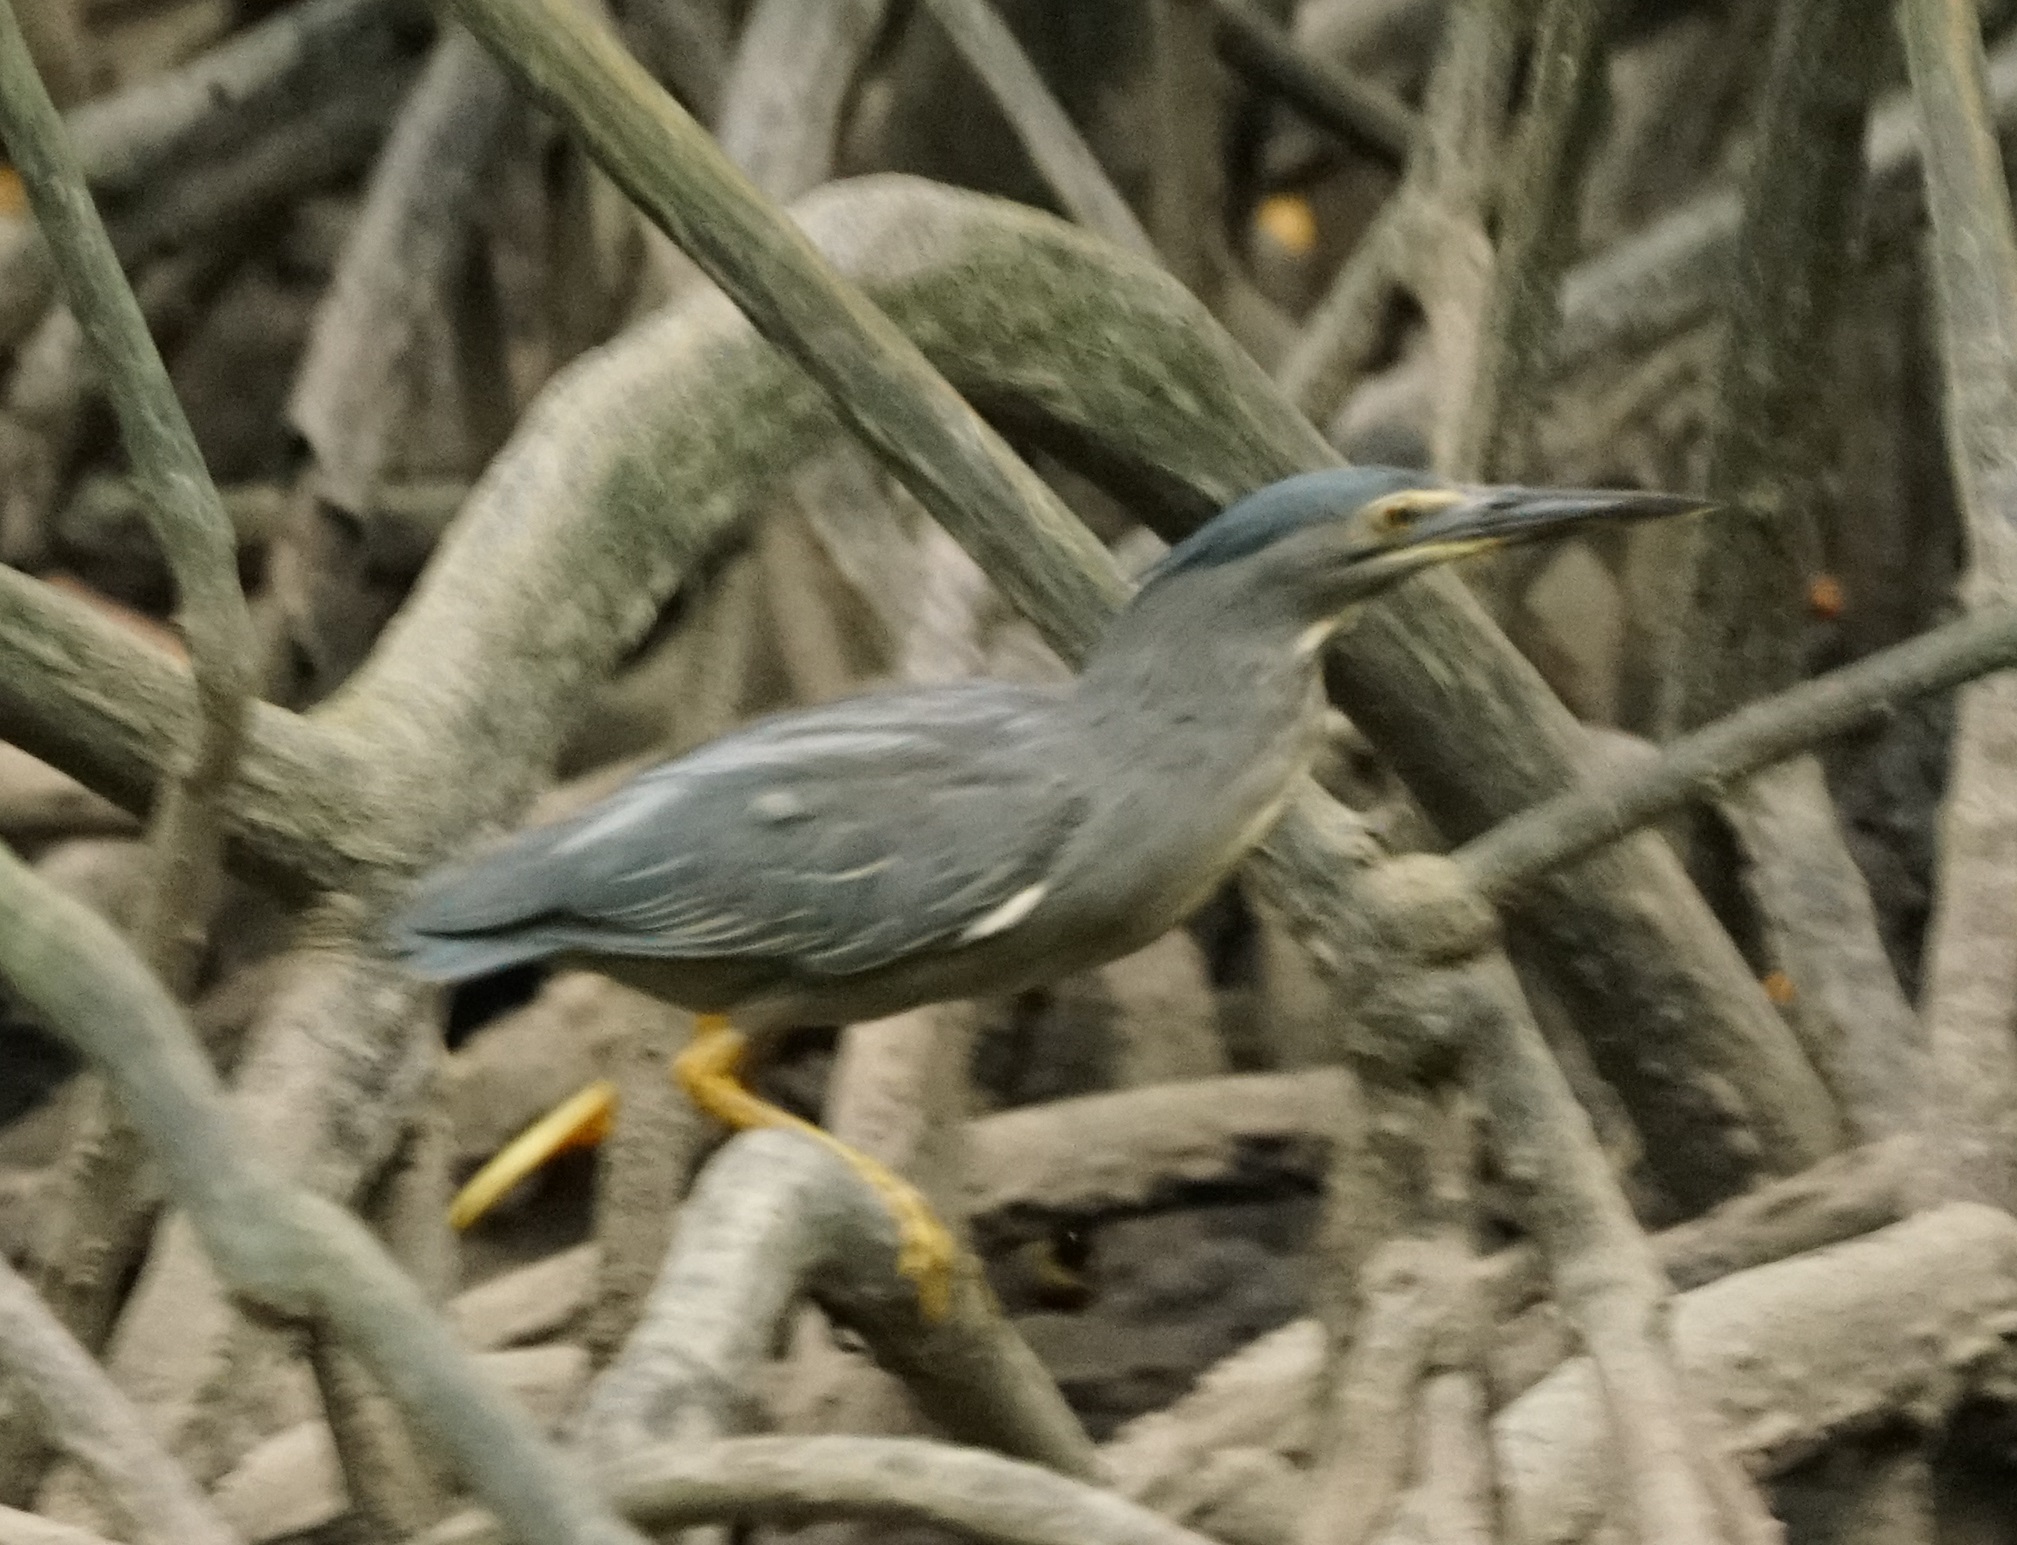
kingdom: Animalia
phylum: Chordata
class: Aves
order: Pelecaniformes
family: Ardeidae
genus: Butorides
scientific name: Butorides striata
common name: Striated heron
